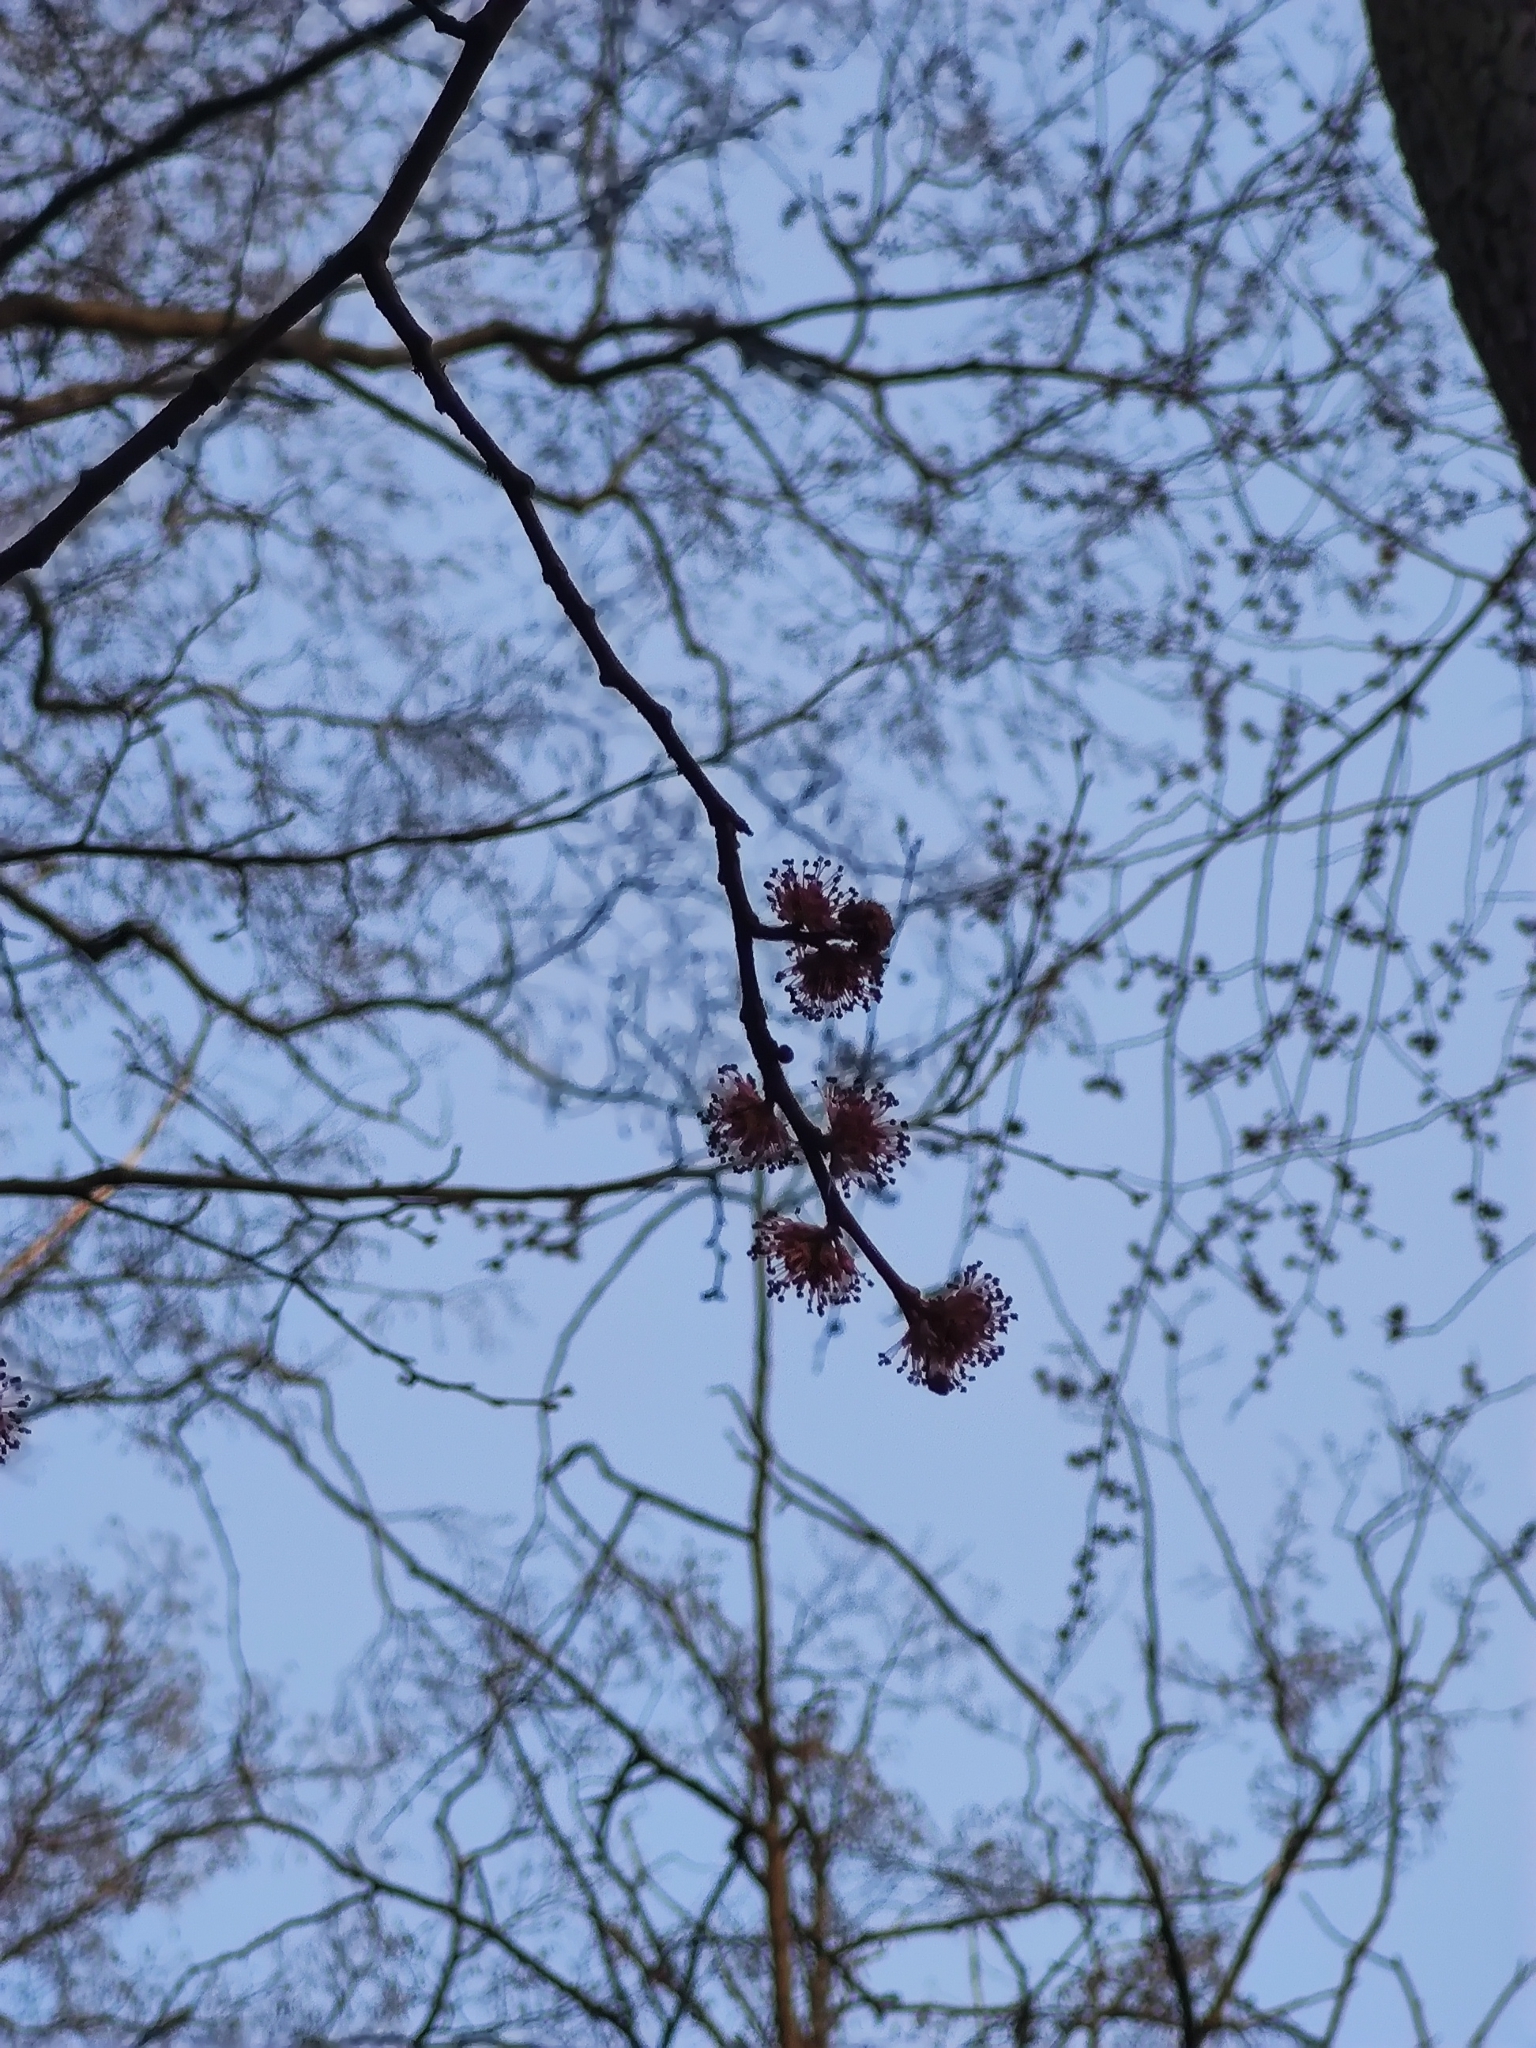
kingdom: Plantae
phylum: Tracheophyta
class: Magnoliopsida
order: Rosales
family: Ulmaceae
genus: Ulmus
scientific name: Ulmus glabra
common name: Wych elm
